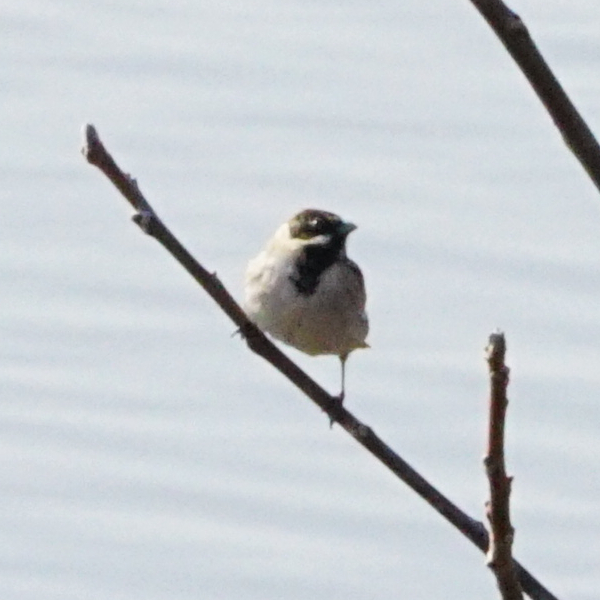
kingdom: Animalia
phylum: Chordata
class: Aves
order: Passeriformes
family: Emberizidae
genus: Emberiza
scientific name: Emberiza schoeniclus
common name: Reed bunting
